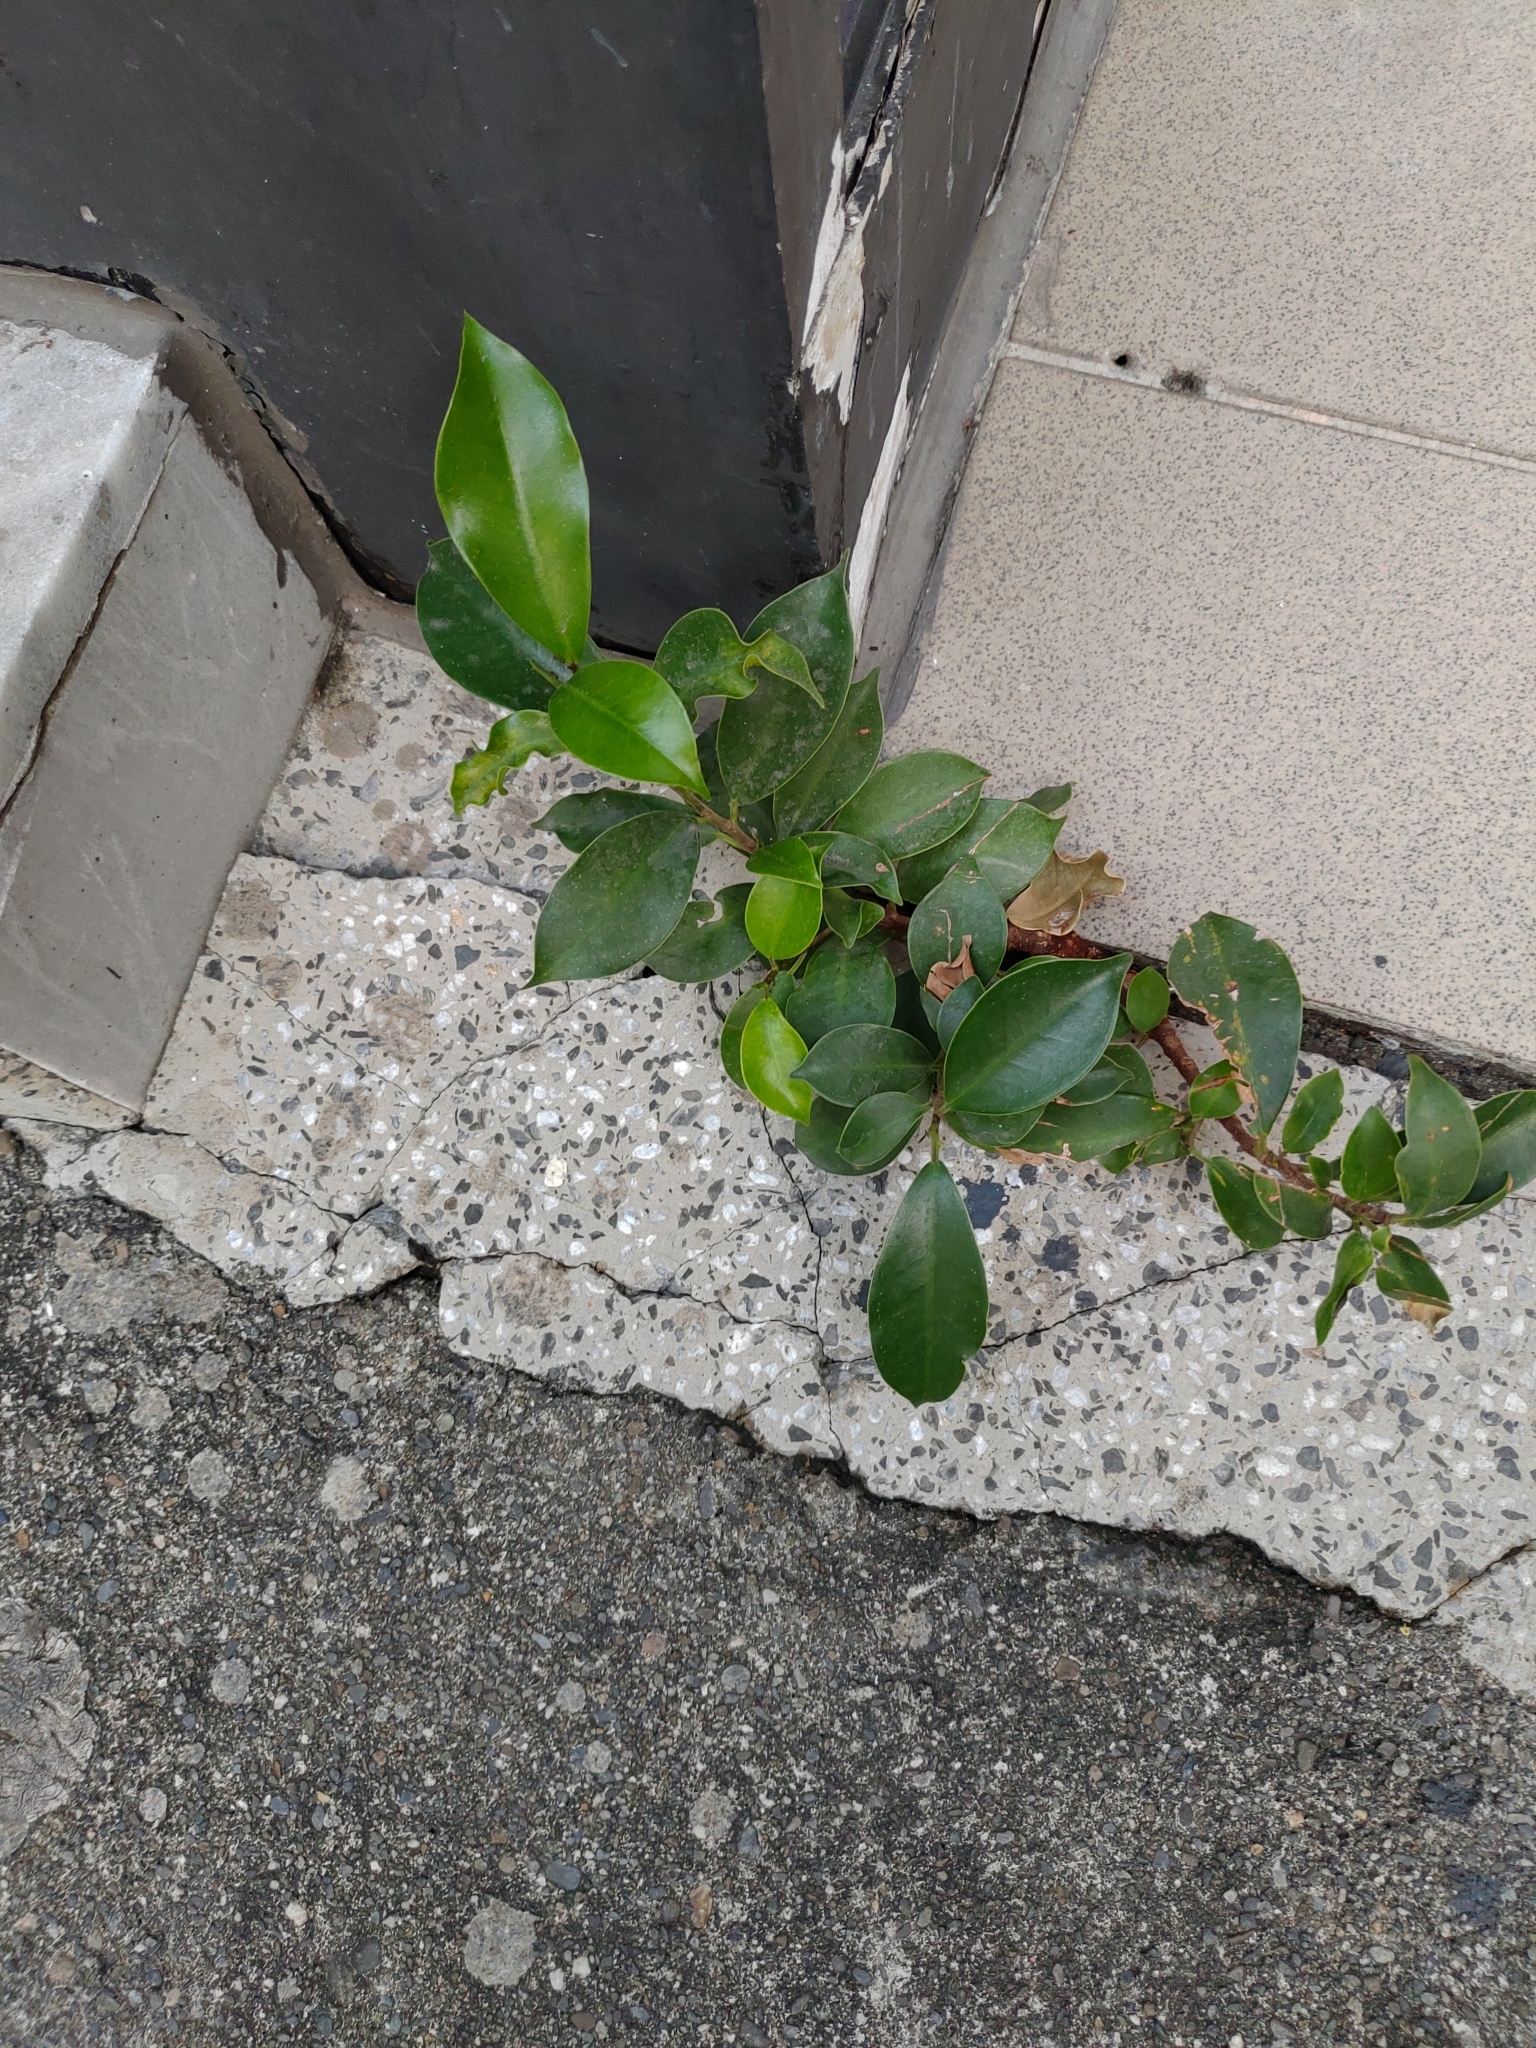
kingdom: Plantae
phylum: Tracheophyta
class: Magnoliopsida
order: Rosales
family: Moraceae
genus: Ficus
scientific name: Ficus microcarpa
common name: Chinese banyan
